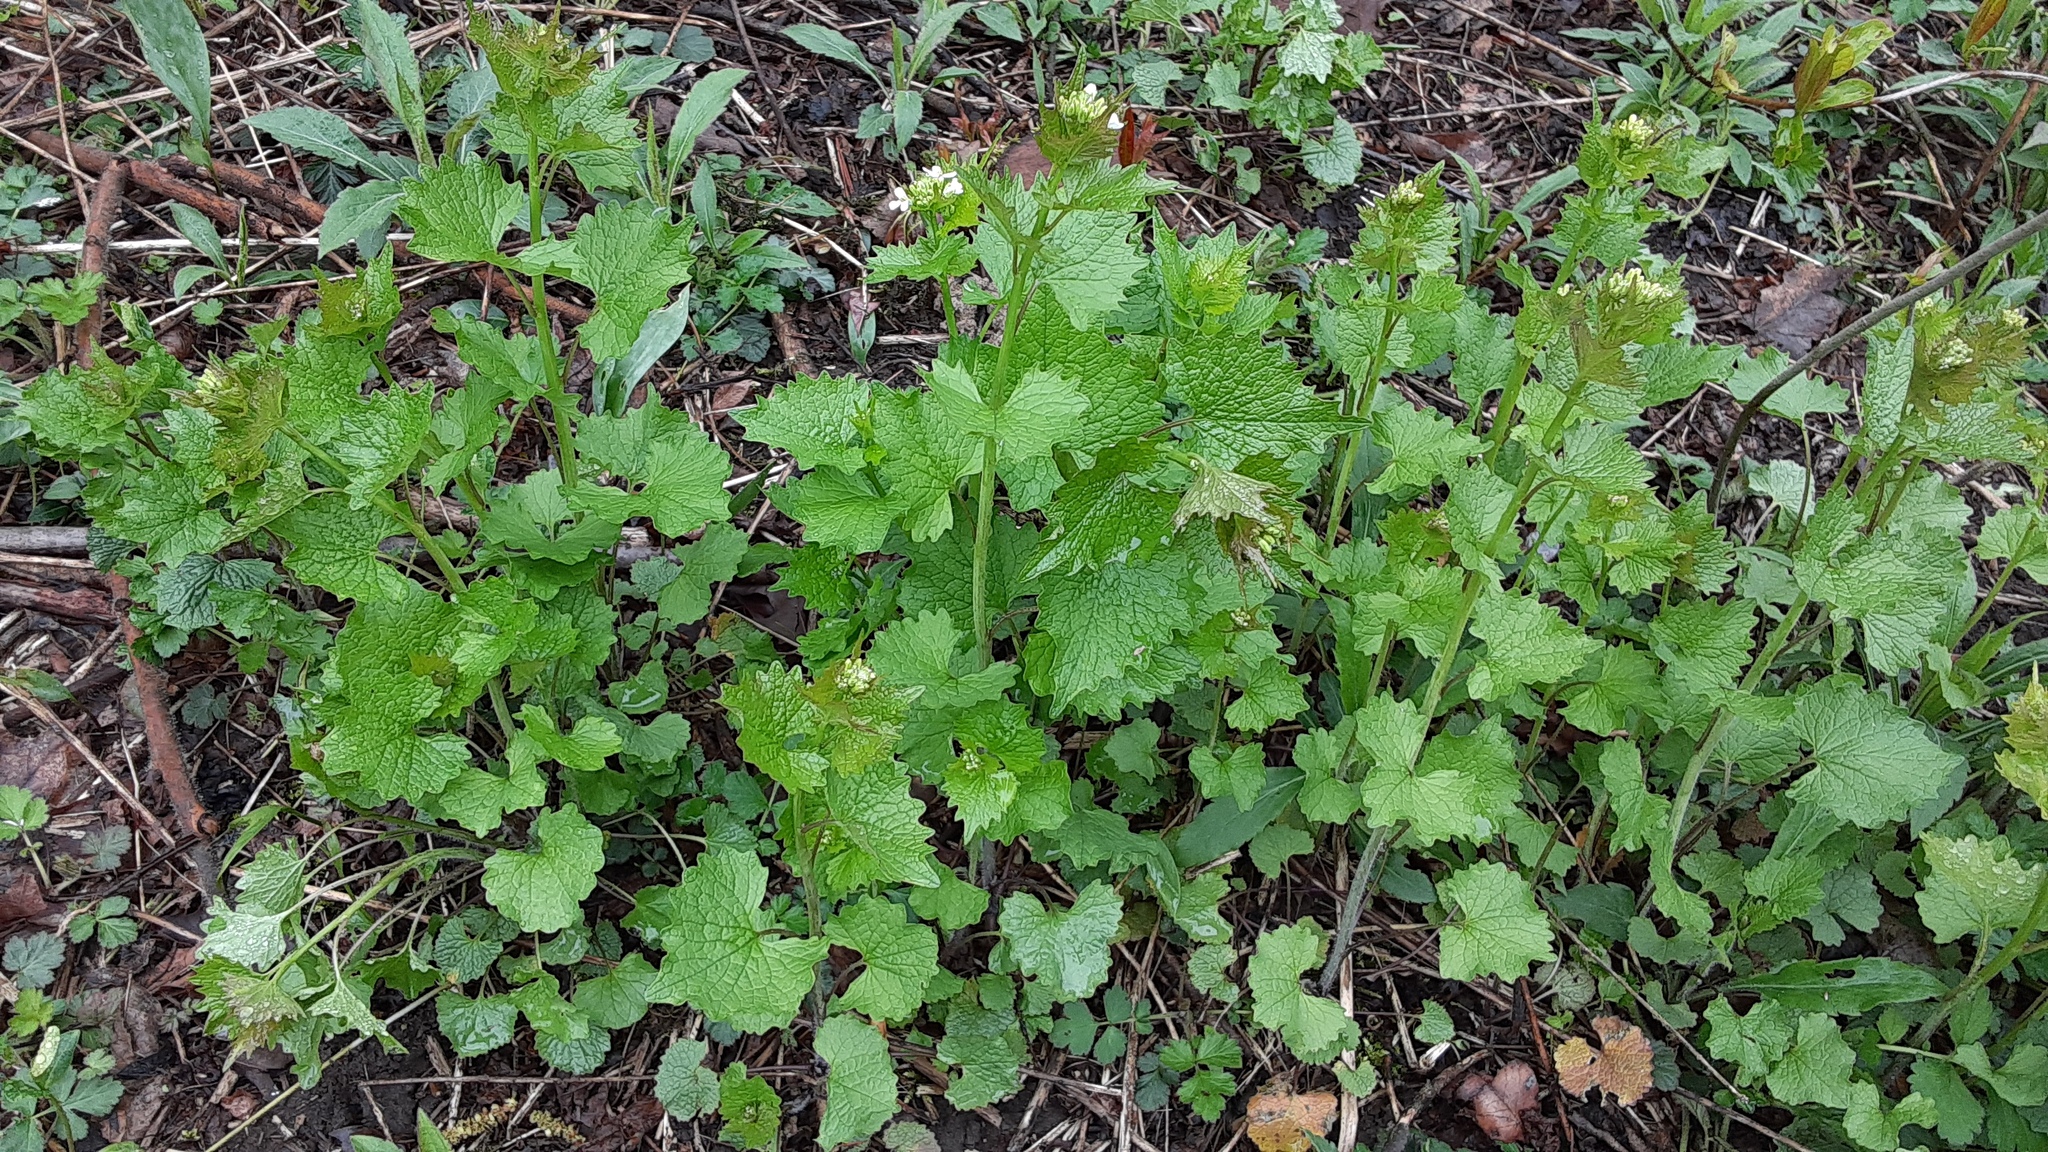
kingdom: Plantae
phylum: Tracheophyta
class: Magnoliopsida
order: Brassicales
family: Brassicaceae
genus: Alliaria
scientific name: Alliaria petiolata
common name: Garlic mustard
